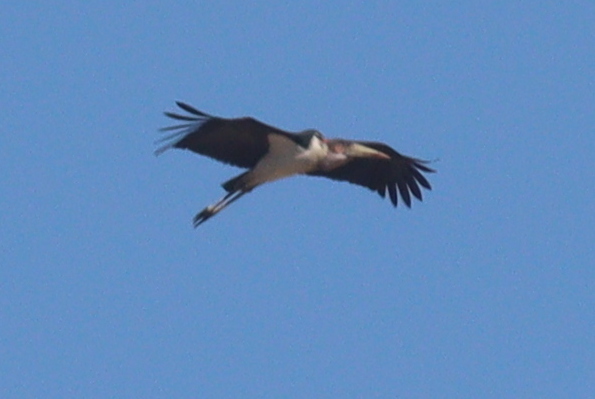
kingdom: Animalia
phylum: Chordata
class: Aves
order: Ciconiiformes
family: Ciconiidae
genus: Leptoptilos
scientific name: Leptoptilos crumenifer
